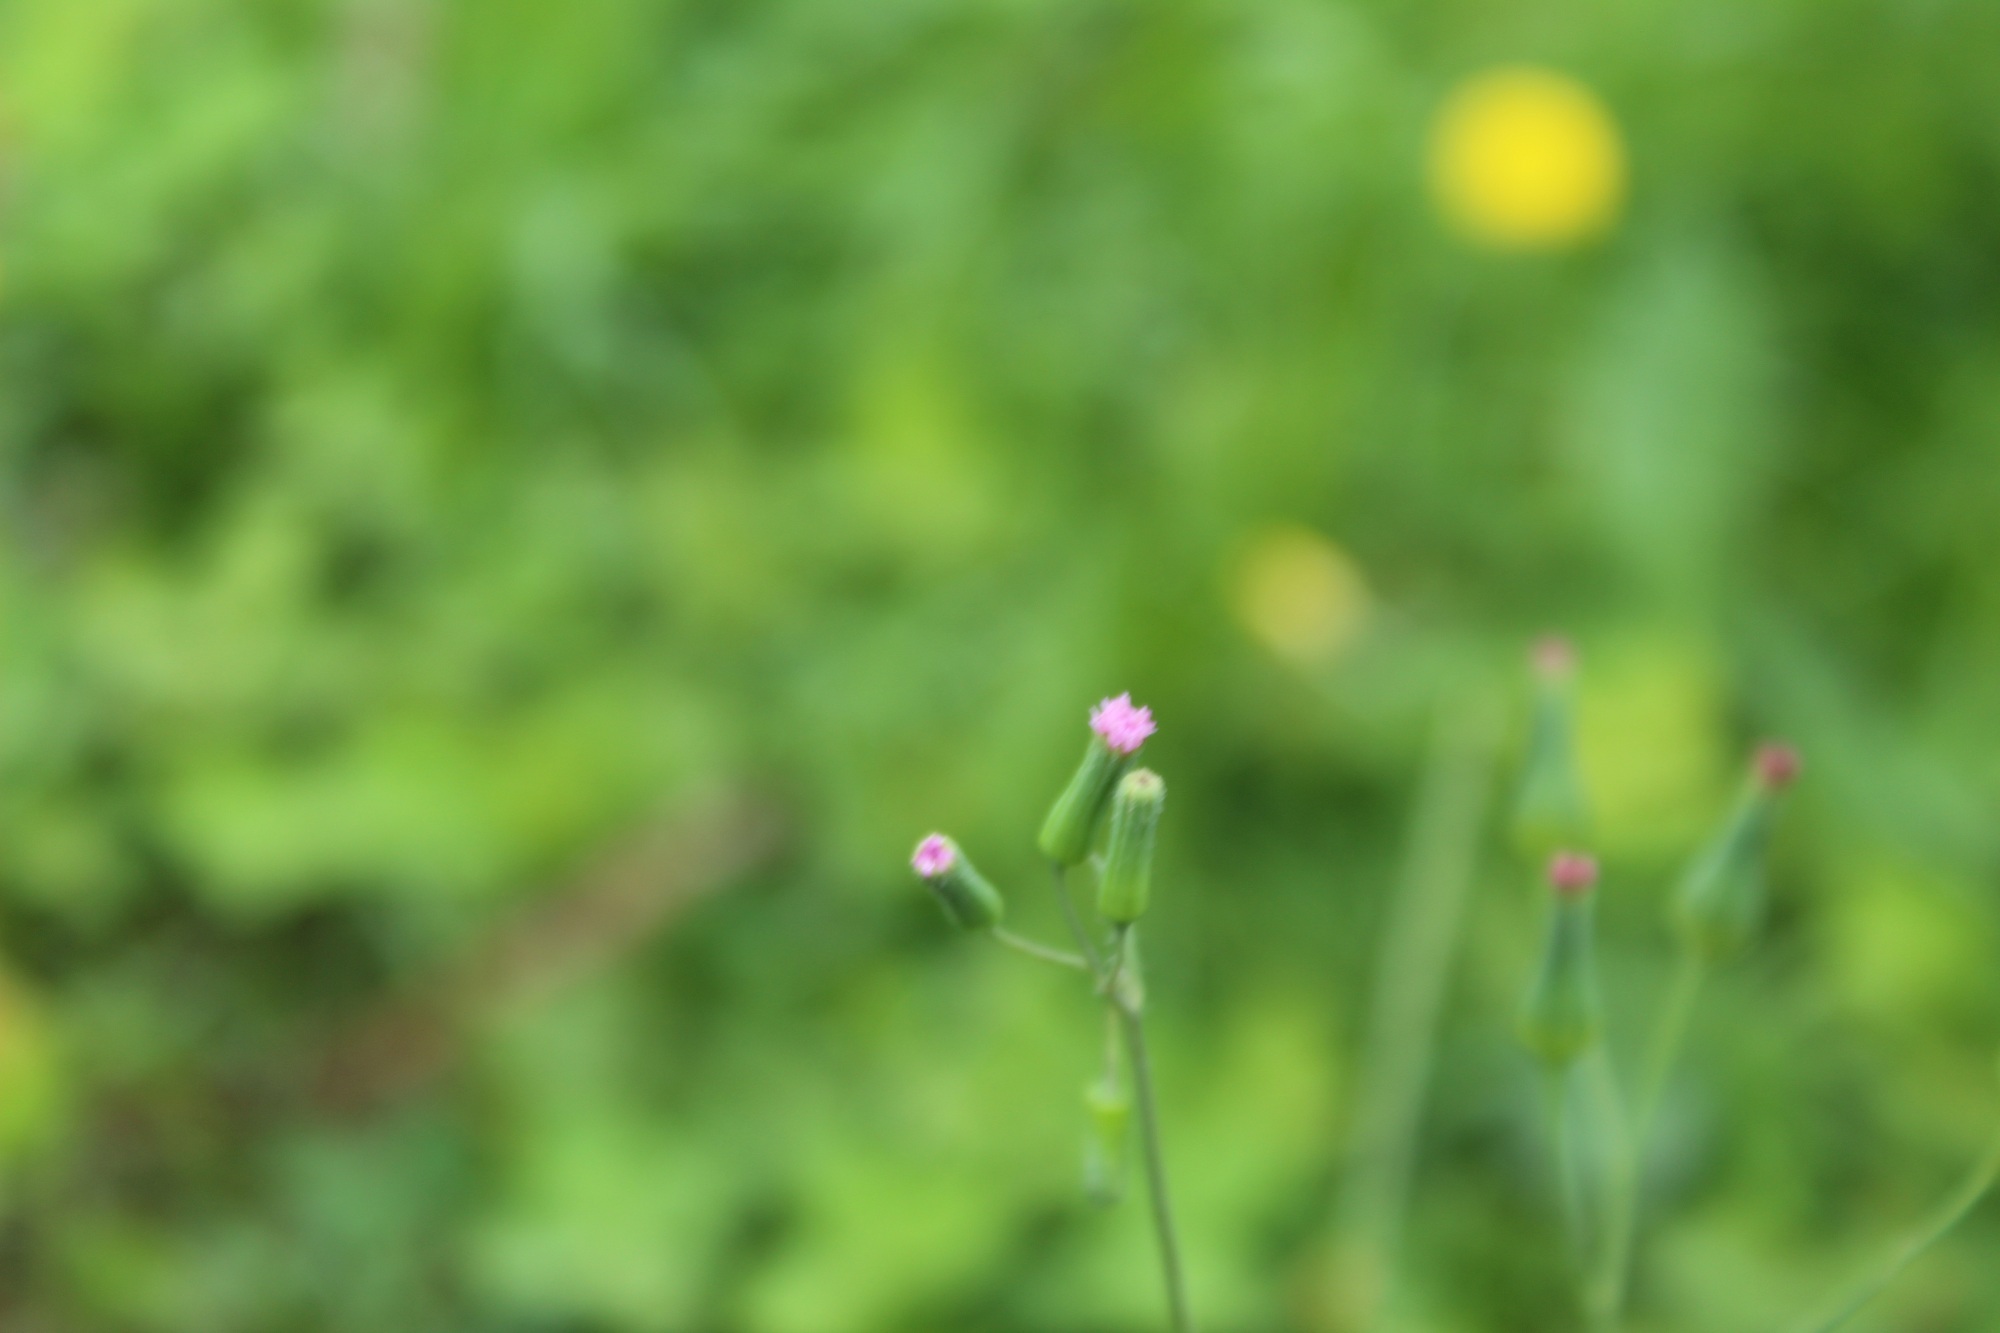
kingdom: Plantae
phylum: Tracheophyta
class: Magnoliopsida
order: Asterales
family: Asteraceae
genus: Emilia
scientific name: Emilia sonchifolia
